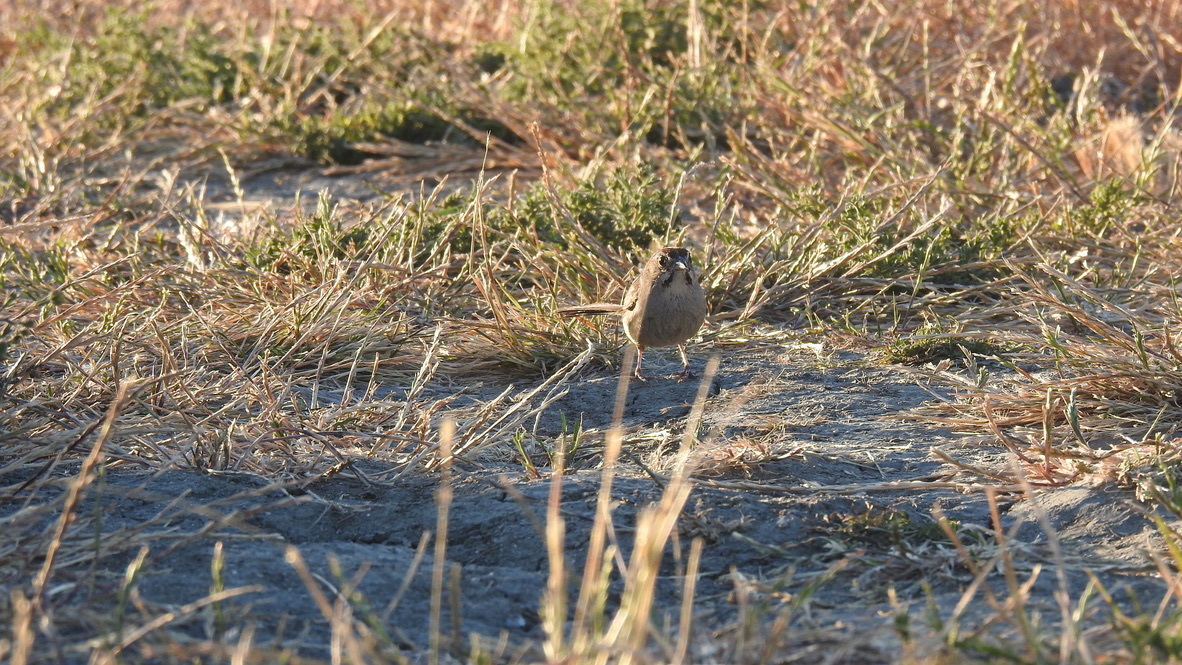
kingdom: Animalia
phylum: Chordata
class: Aves
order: Passeriformes
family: Passerellidae
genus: Aimophila
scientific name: Aimophila ruficeps
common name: Rufous-crowned sparrow
